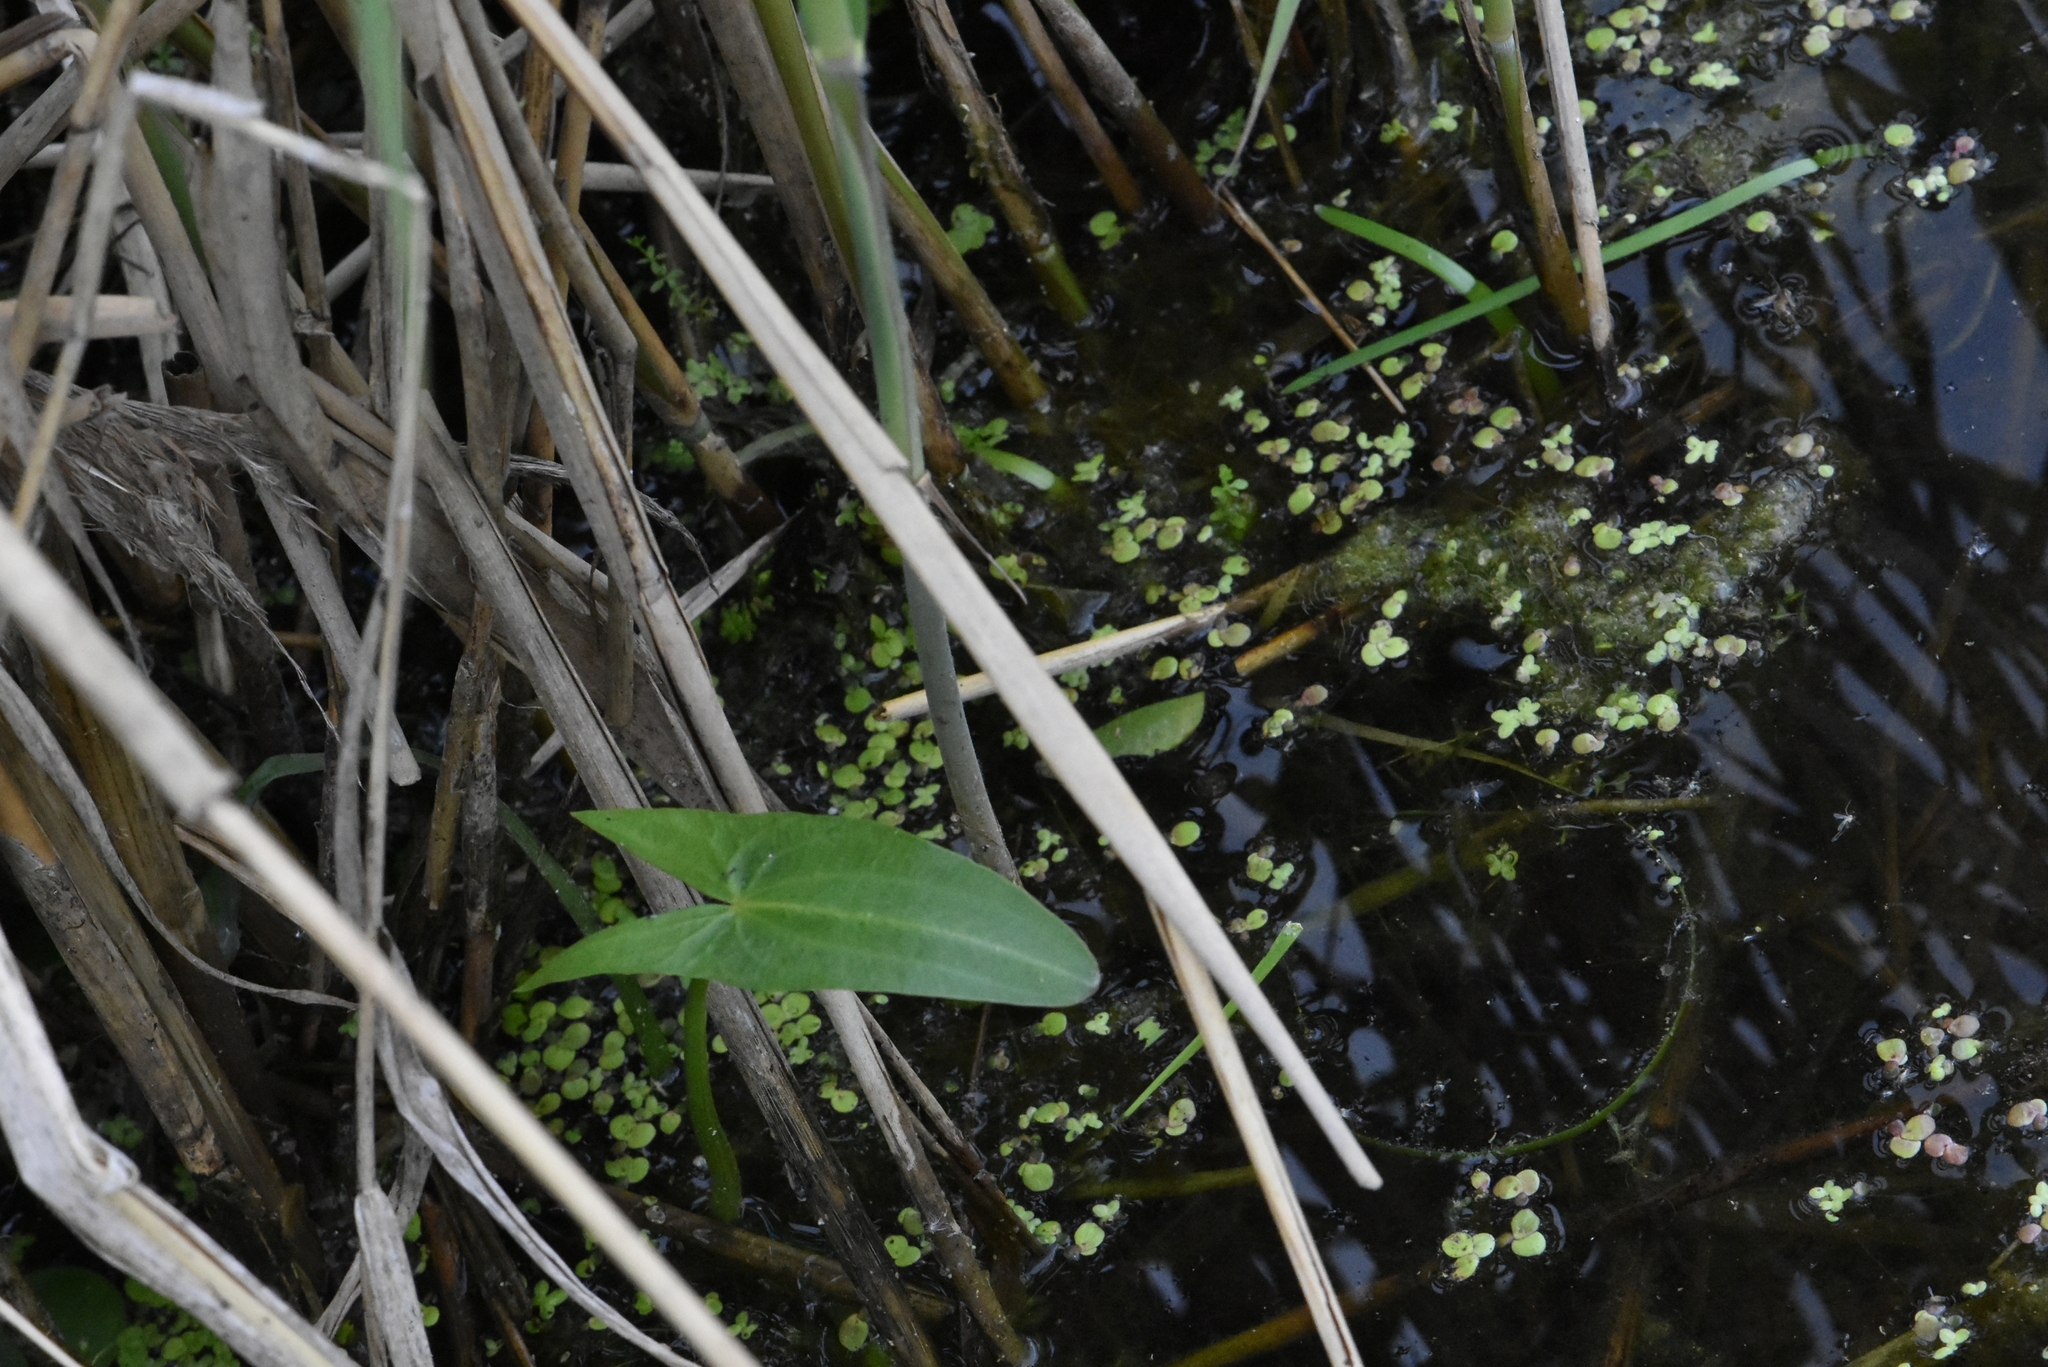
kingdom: Plantae
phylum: Tracheophyta
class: Liliopsida
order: Alismatales
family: Alismataceae
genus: Sagittaria
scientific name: Sagittaria sagittifolia
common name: Arrowhead
